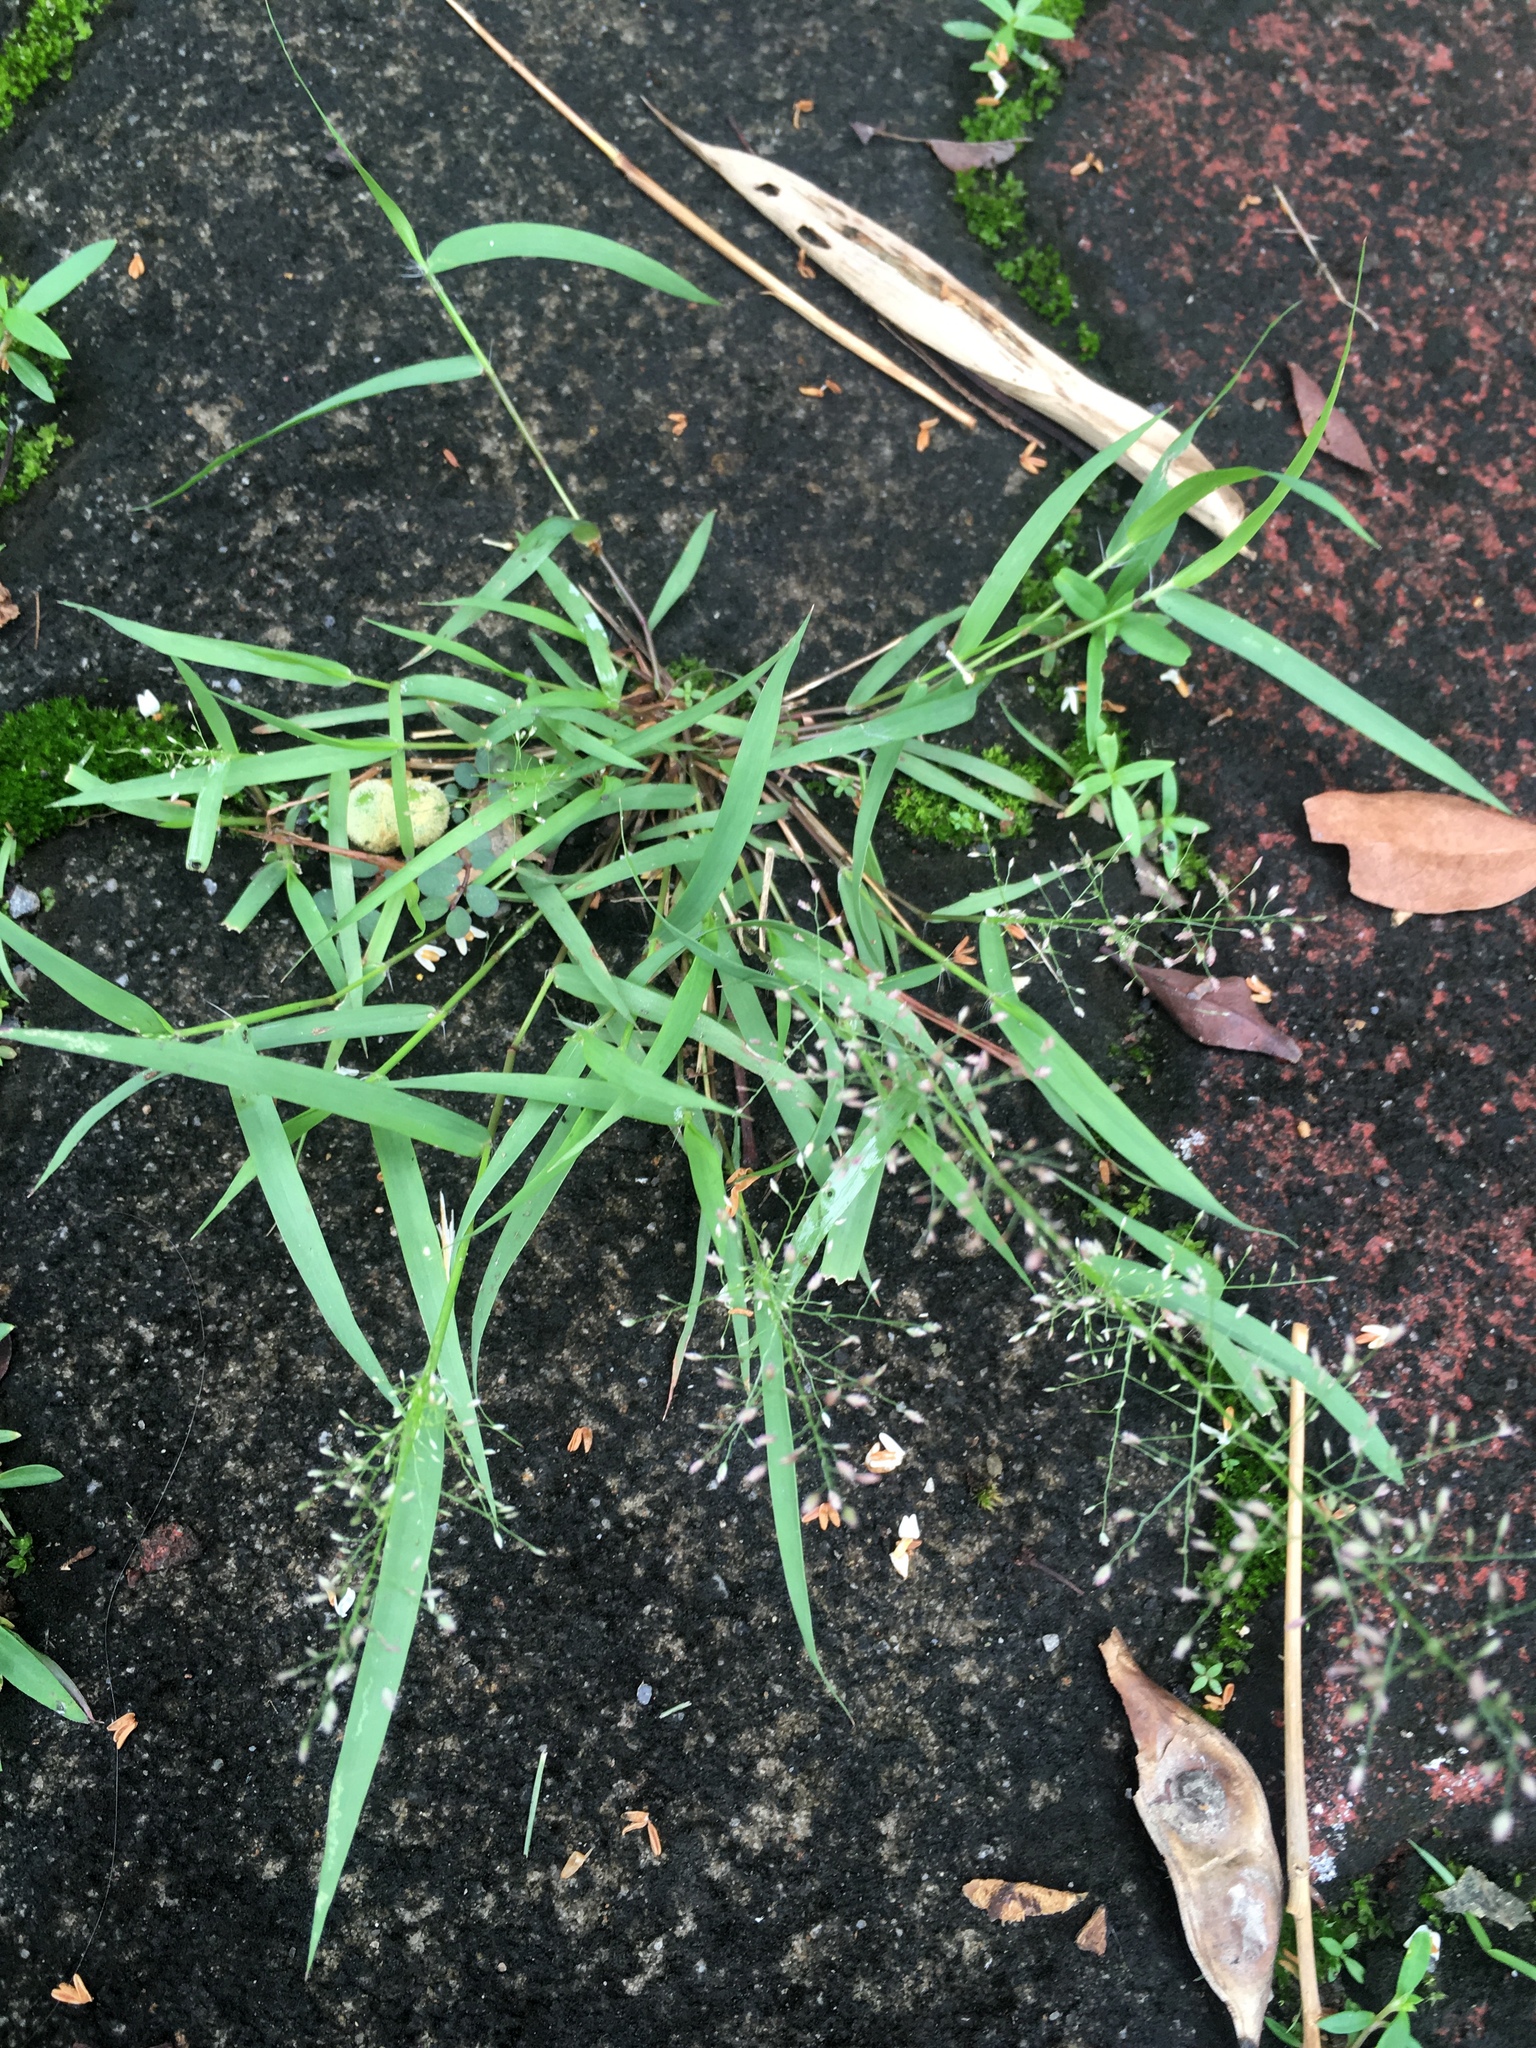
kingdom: Plantae
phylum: Tracheophyta
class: Liliopsida
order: Poales
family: Poaceae
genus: Eragrostis
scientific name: Eragrostis tenella
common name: Japanese lovegrass
